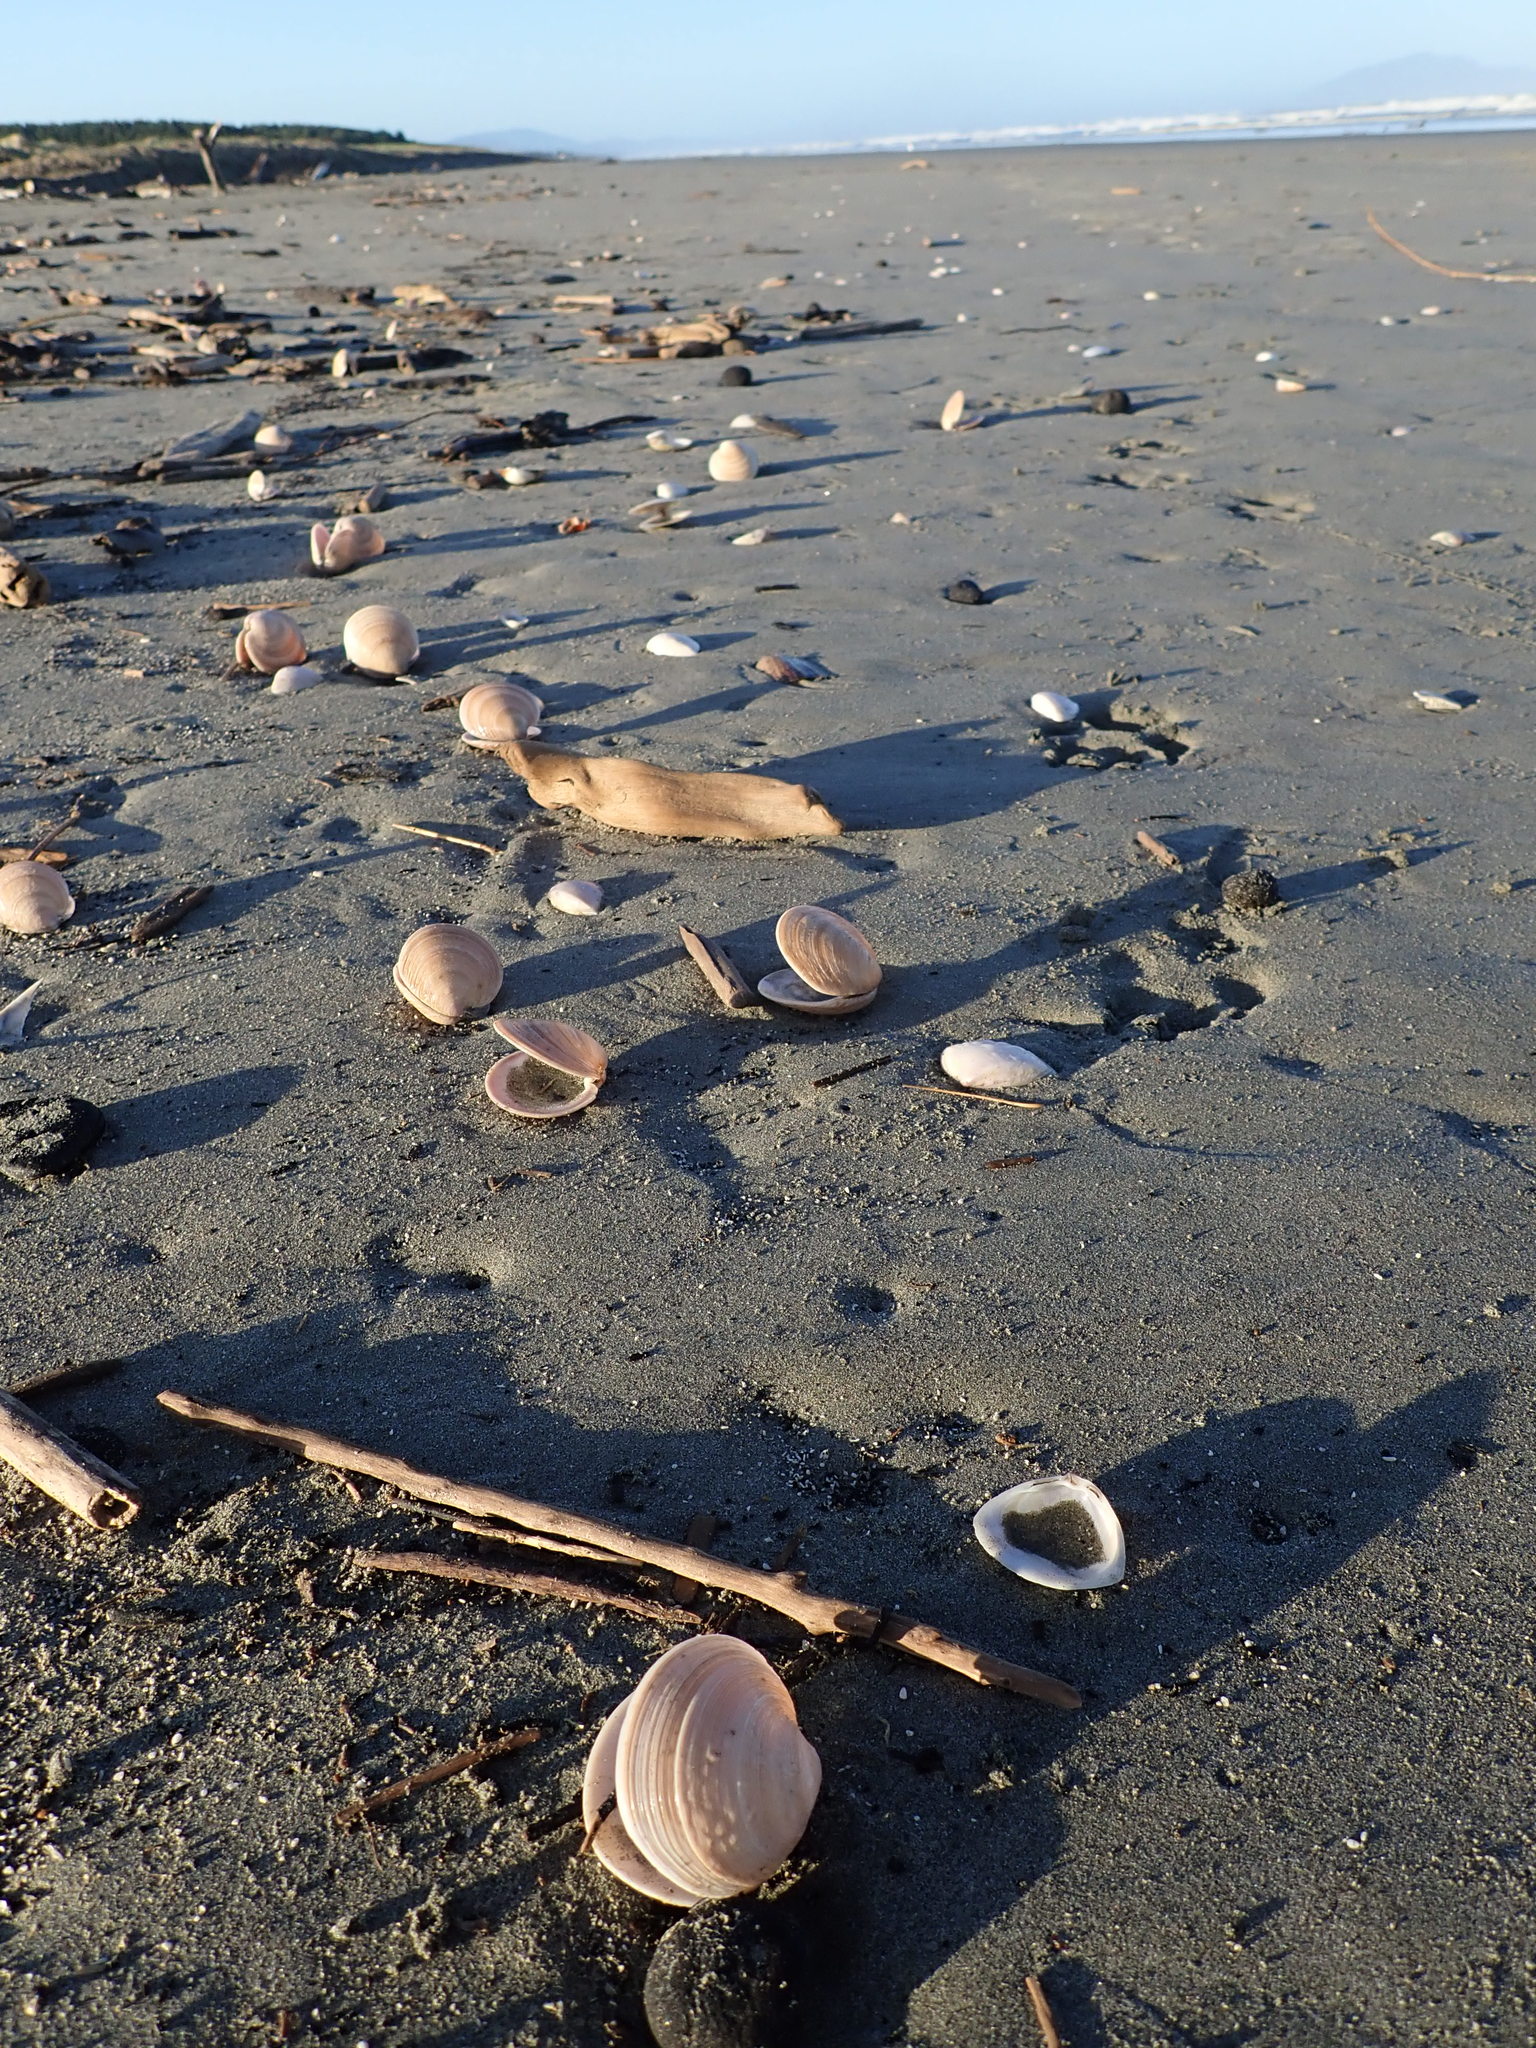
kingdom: Animalia
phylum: Mollusca
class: Bivalvia
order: Venerida
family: Veneridae
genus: Dosinia
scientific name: Dosinia anus
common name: Old-woman dosinia
